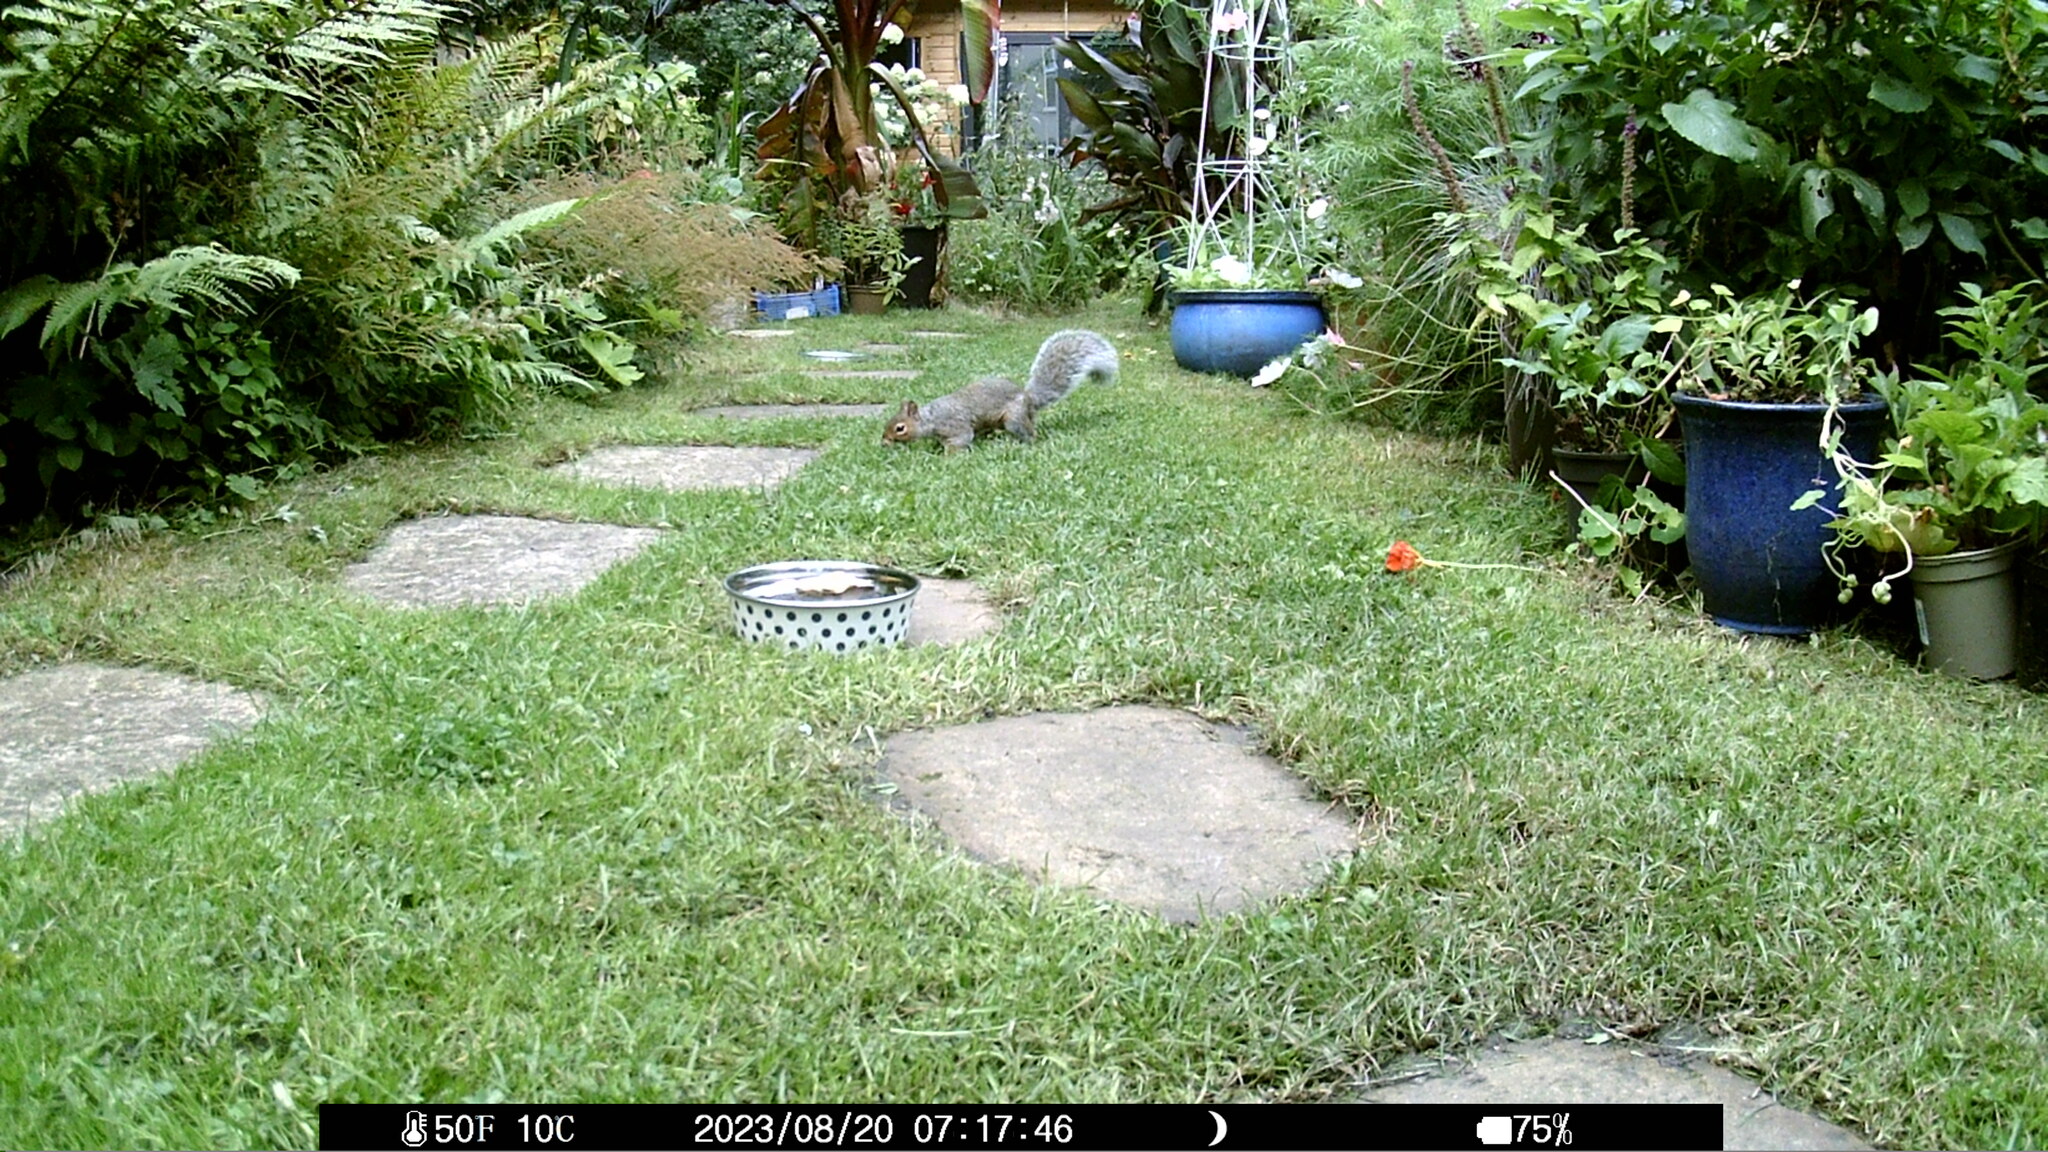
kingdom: Animalia
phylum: Chordata
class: Mammalia
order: Rodentia
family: Sciuridae
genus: Sciurus
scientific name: Sciurus carolinensis
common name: Eastern gray squirrel
